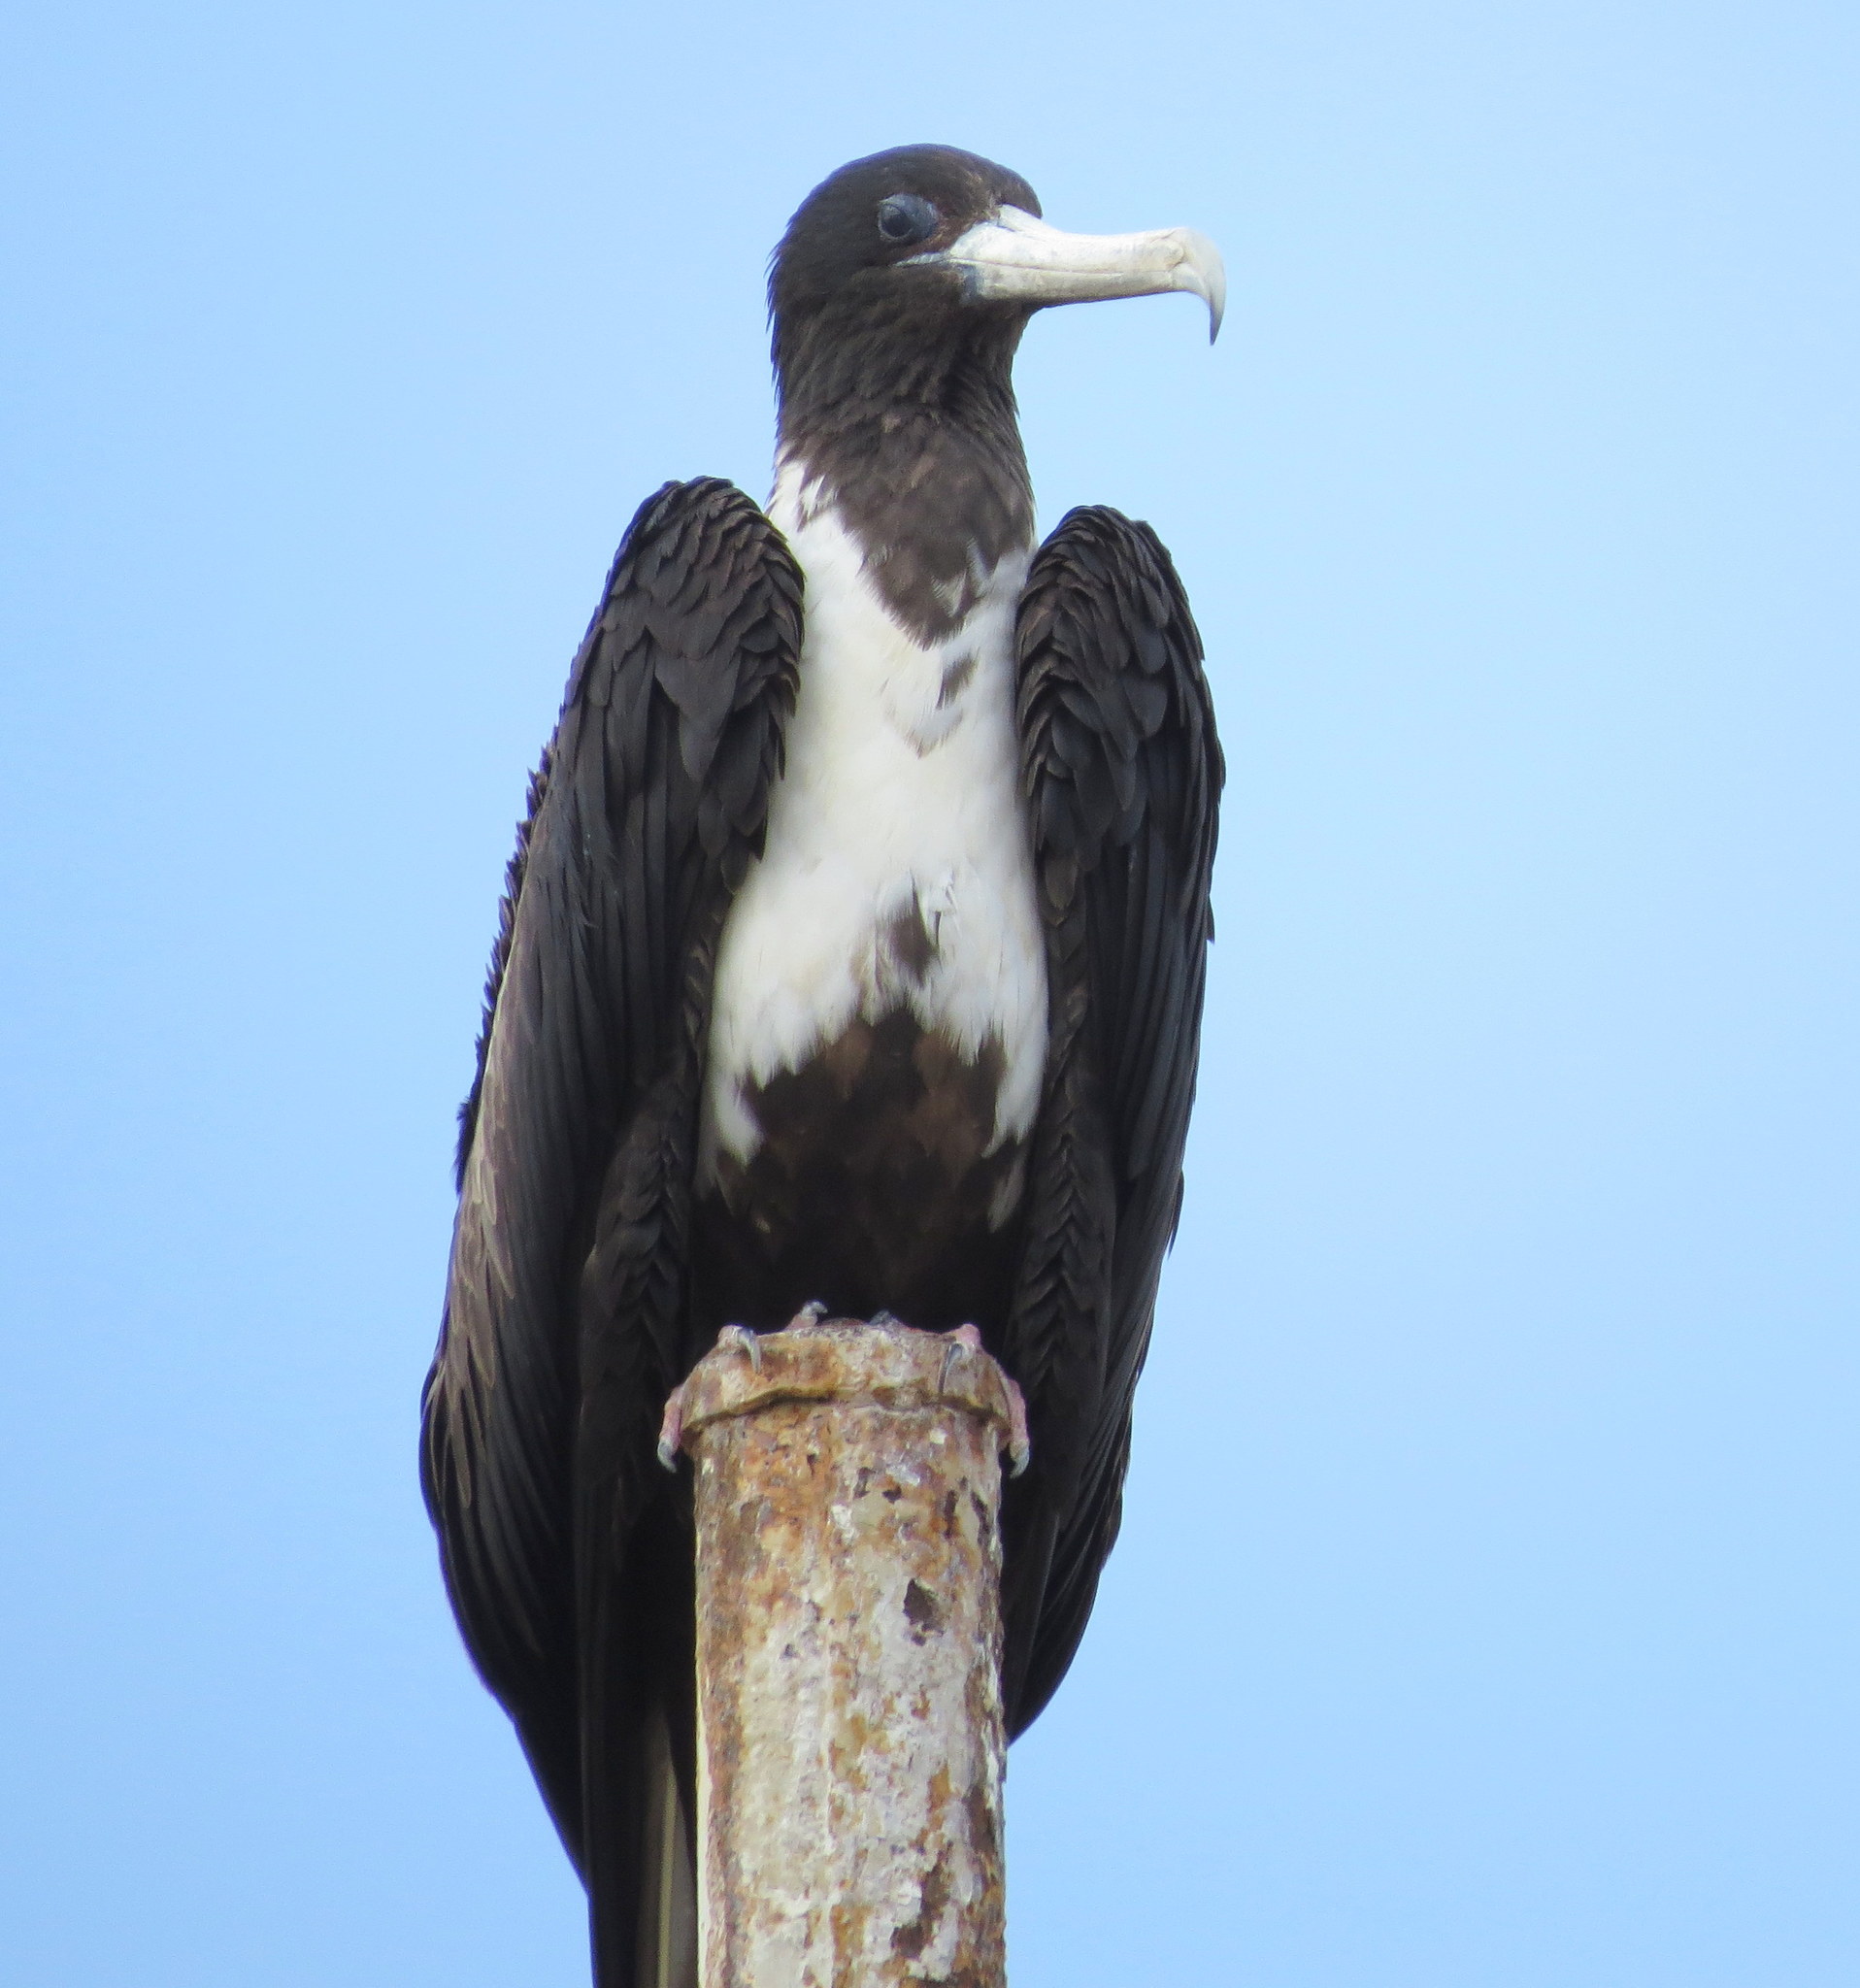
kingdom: Animalia
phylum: Chordata
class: Aves
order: Suliformes
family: Fregatidae
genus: Fregata
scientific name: Fregata magnificens
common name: Magnificent frigatebird
